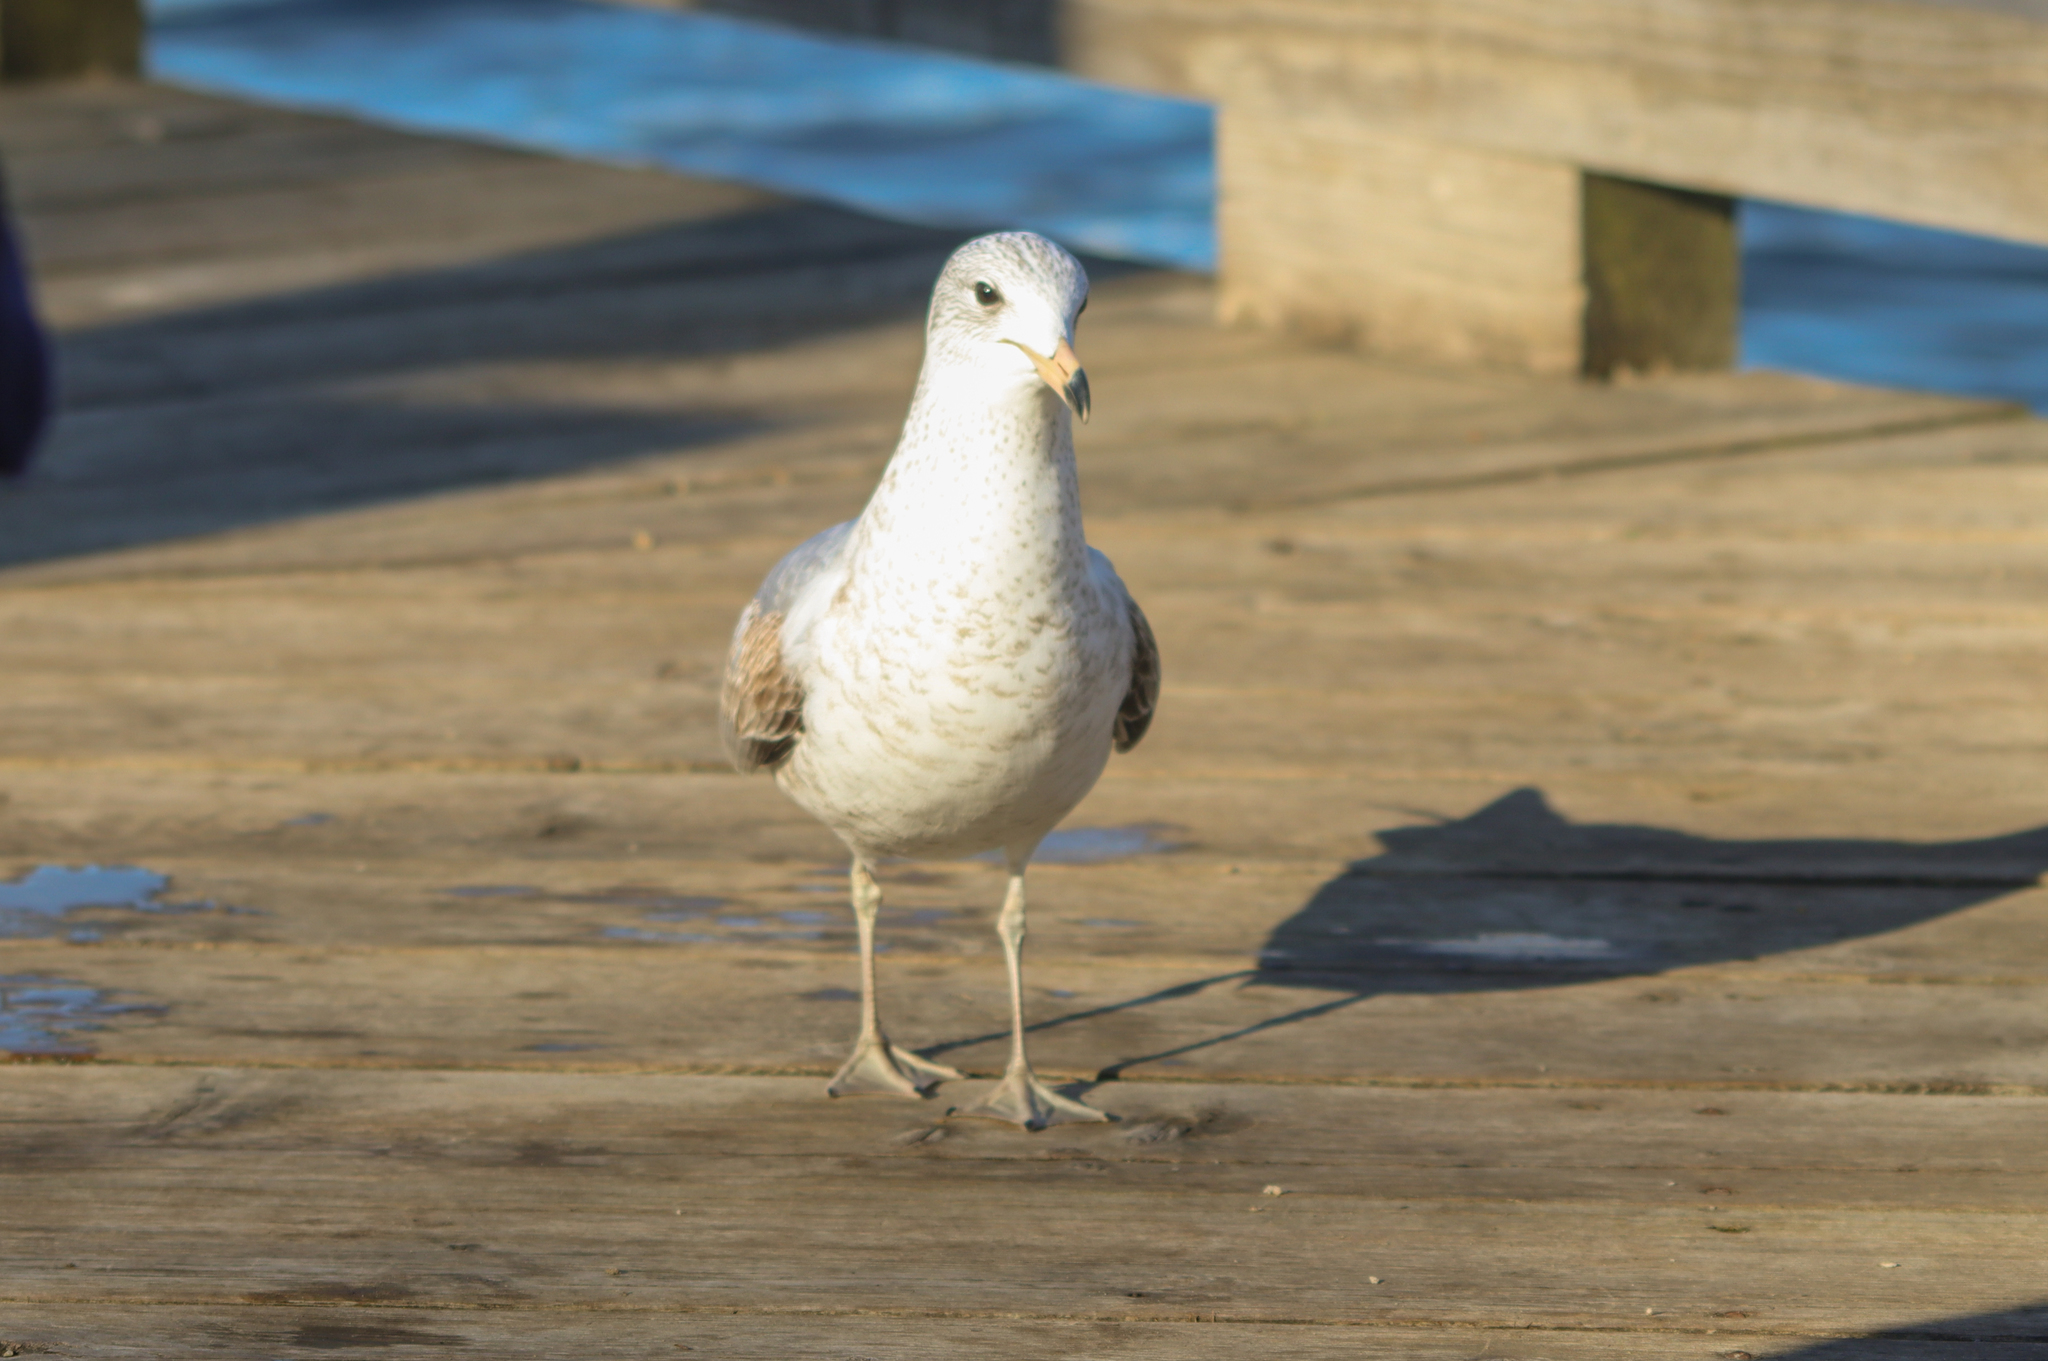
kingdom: Animalia
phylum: Chordata
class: Aves
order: Charadriiformes
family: Laridae
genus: Larus
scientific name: Larus delawarensis
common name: Ring-billed gull
